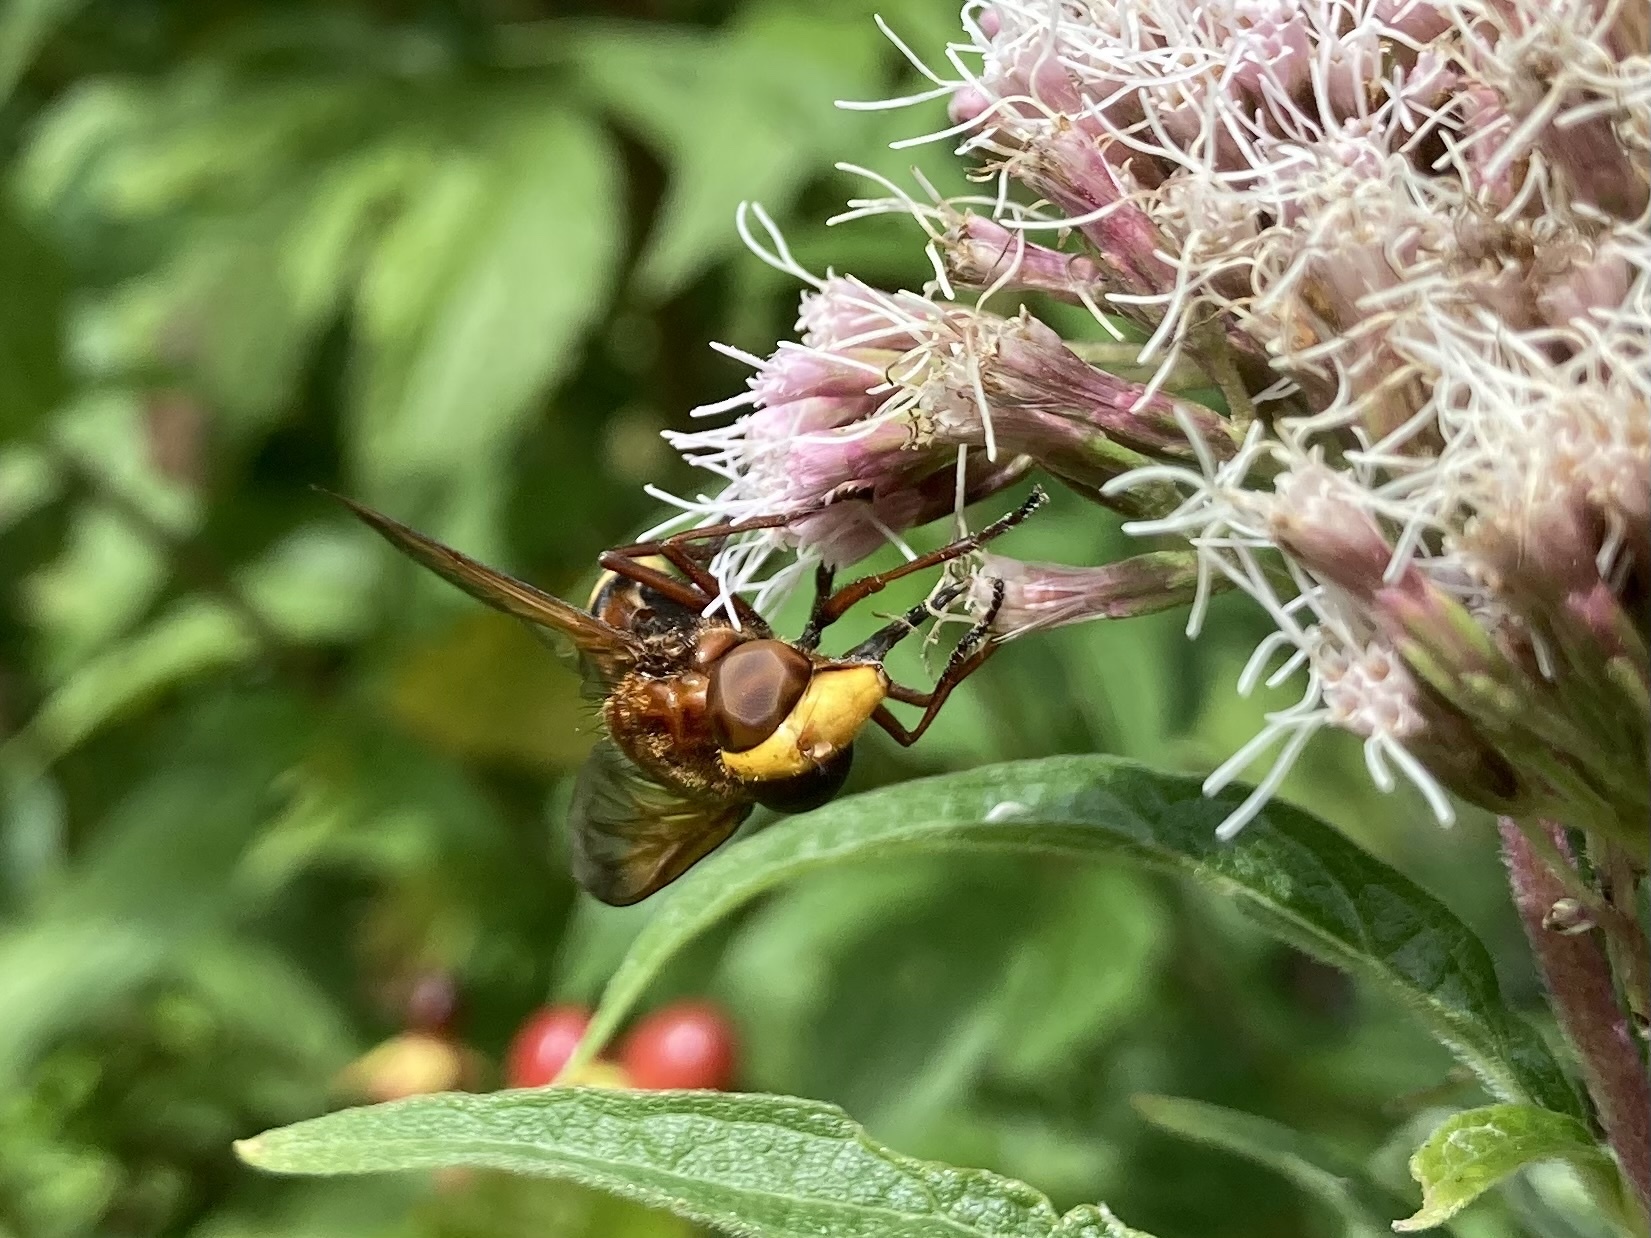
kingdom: Animalia
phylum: Arthropoda
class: Insecta
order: Diptera
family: Syrphidae
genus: Volucella
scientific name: Volucella zonaria
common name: Hornet hoverfly
